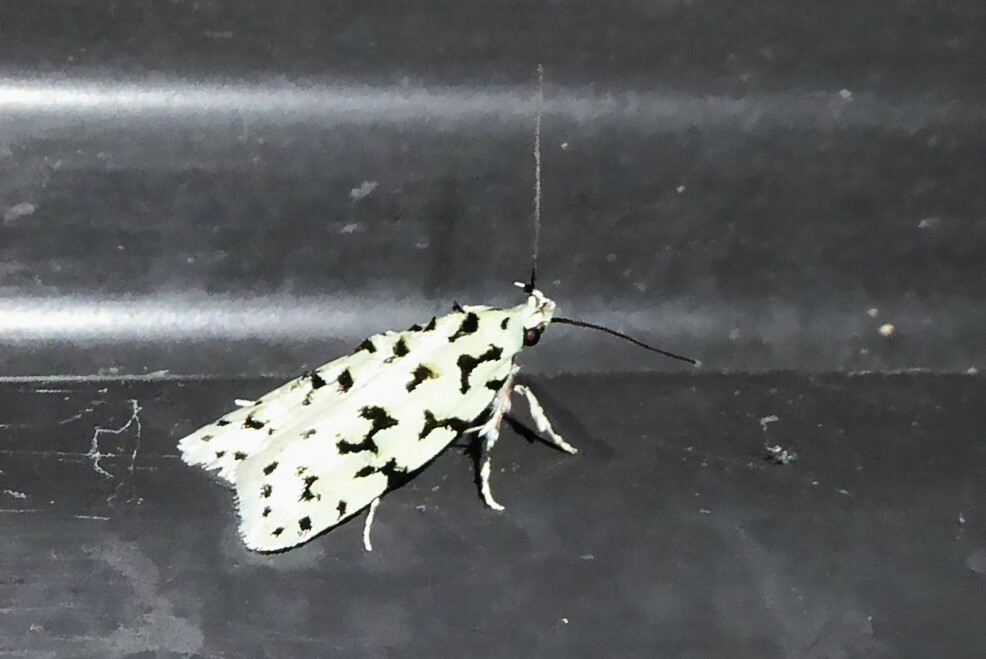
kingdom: Animalia
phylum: Arthropoda
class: Insecta
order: Lepidoptera
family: Oecophoridae
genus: Izatha
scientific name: Izatha huttoni
